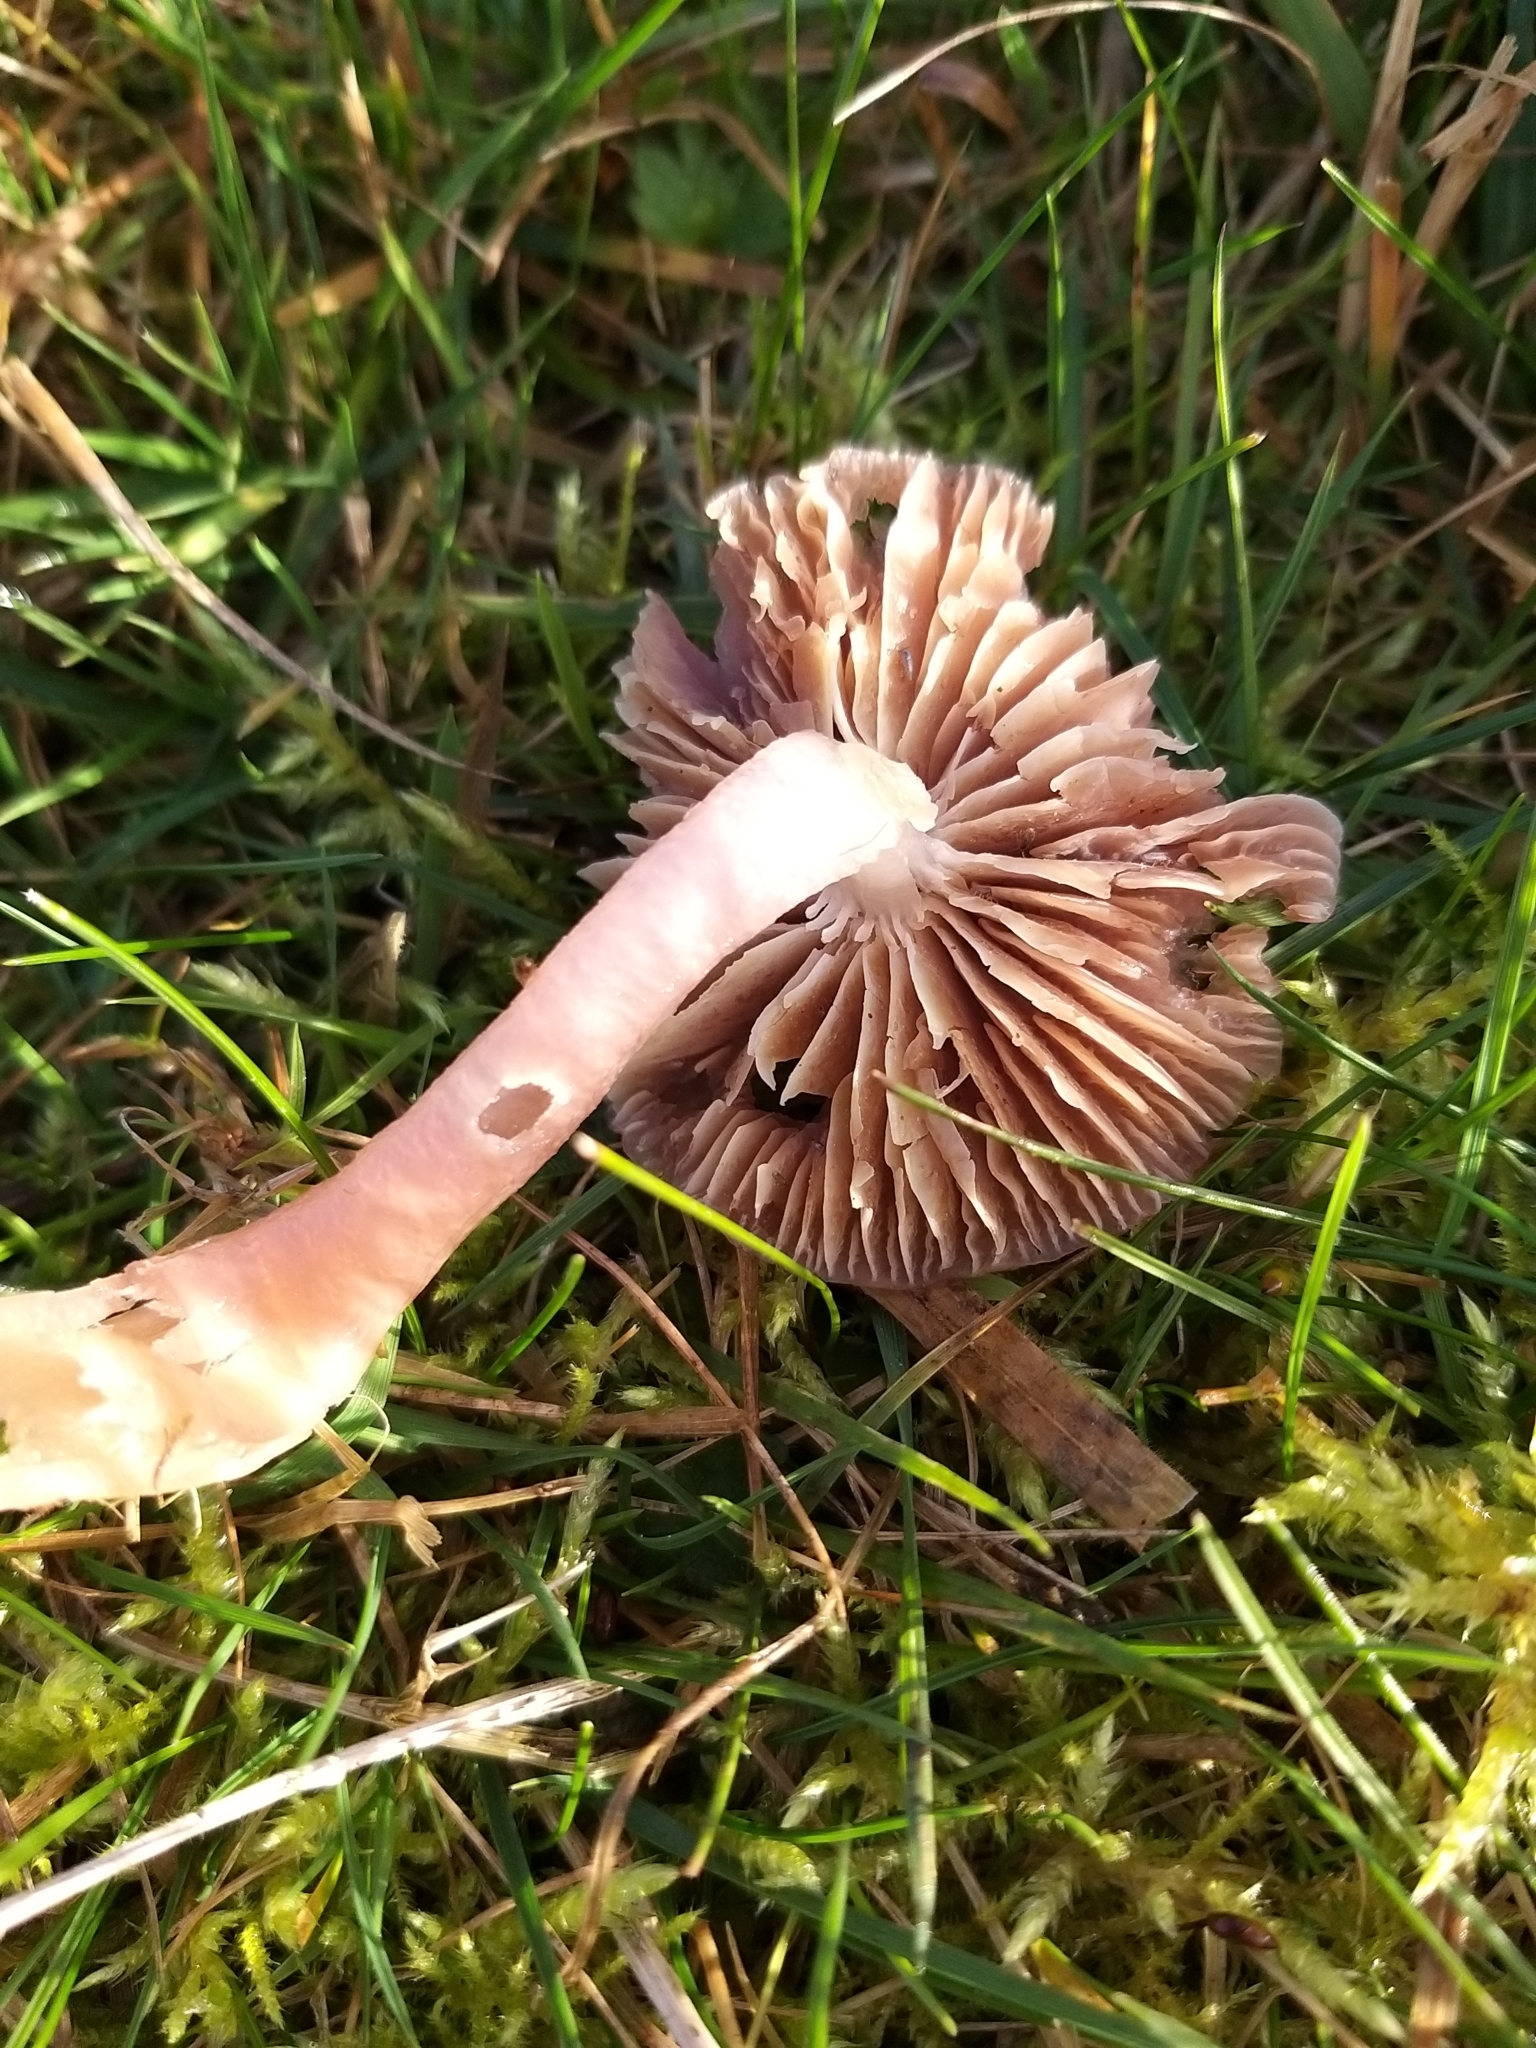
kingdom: Fungi
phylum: Basidiomycota
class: Agaricomycetes
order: Agaricales
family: Hygrophoraceae
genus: Gliophorus
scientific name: Gliophorus reginae
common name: Jubilee waxcap
